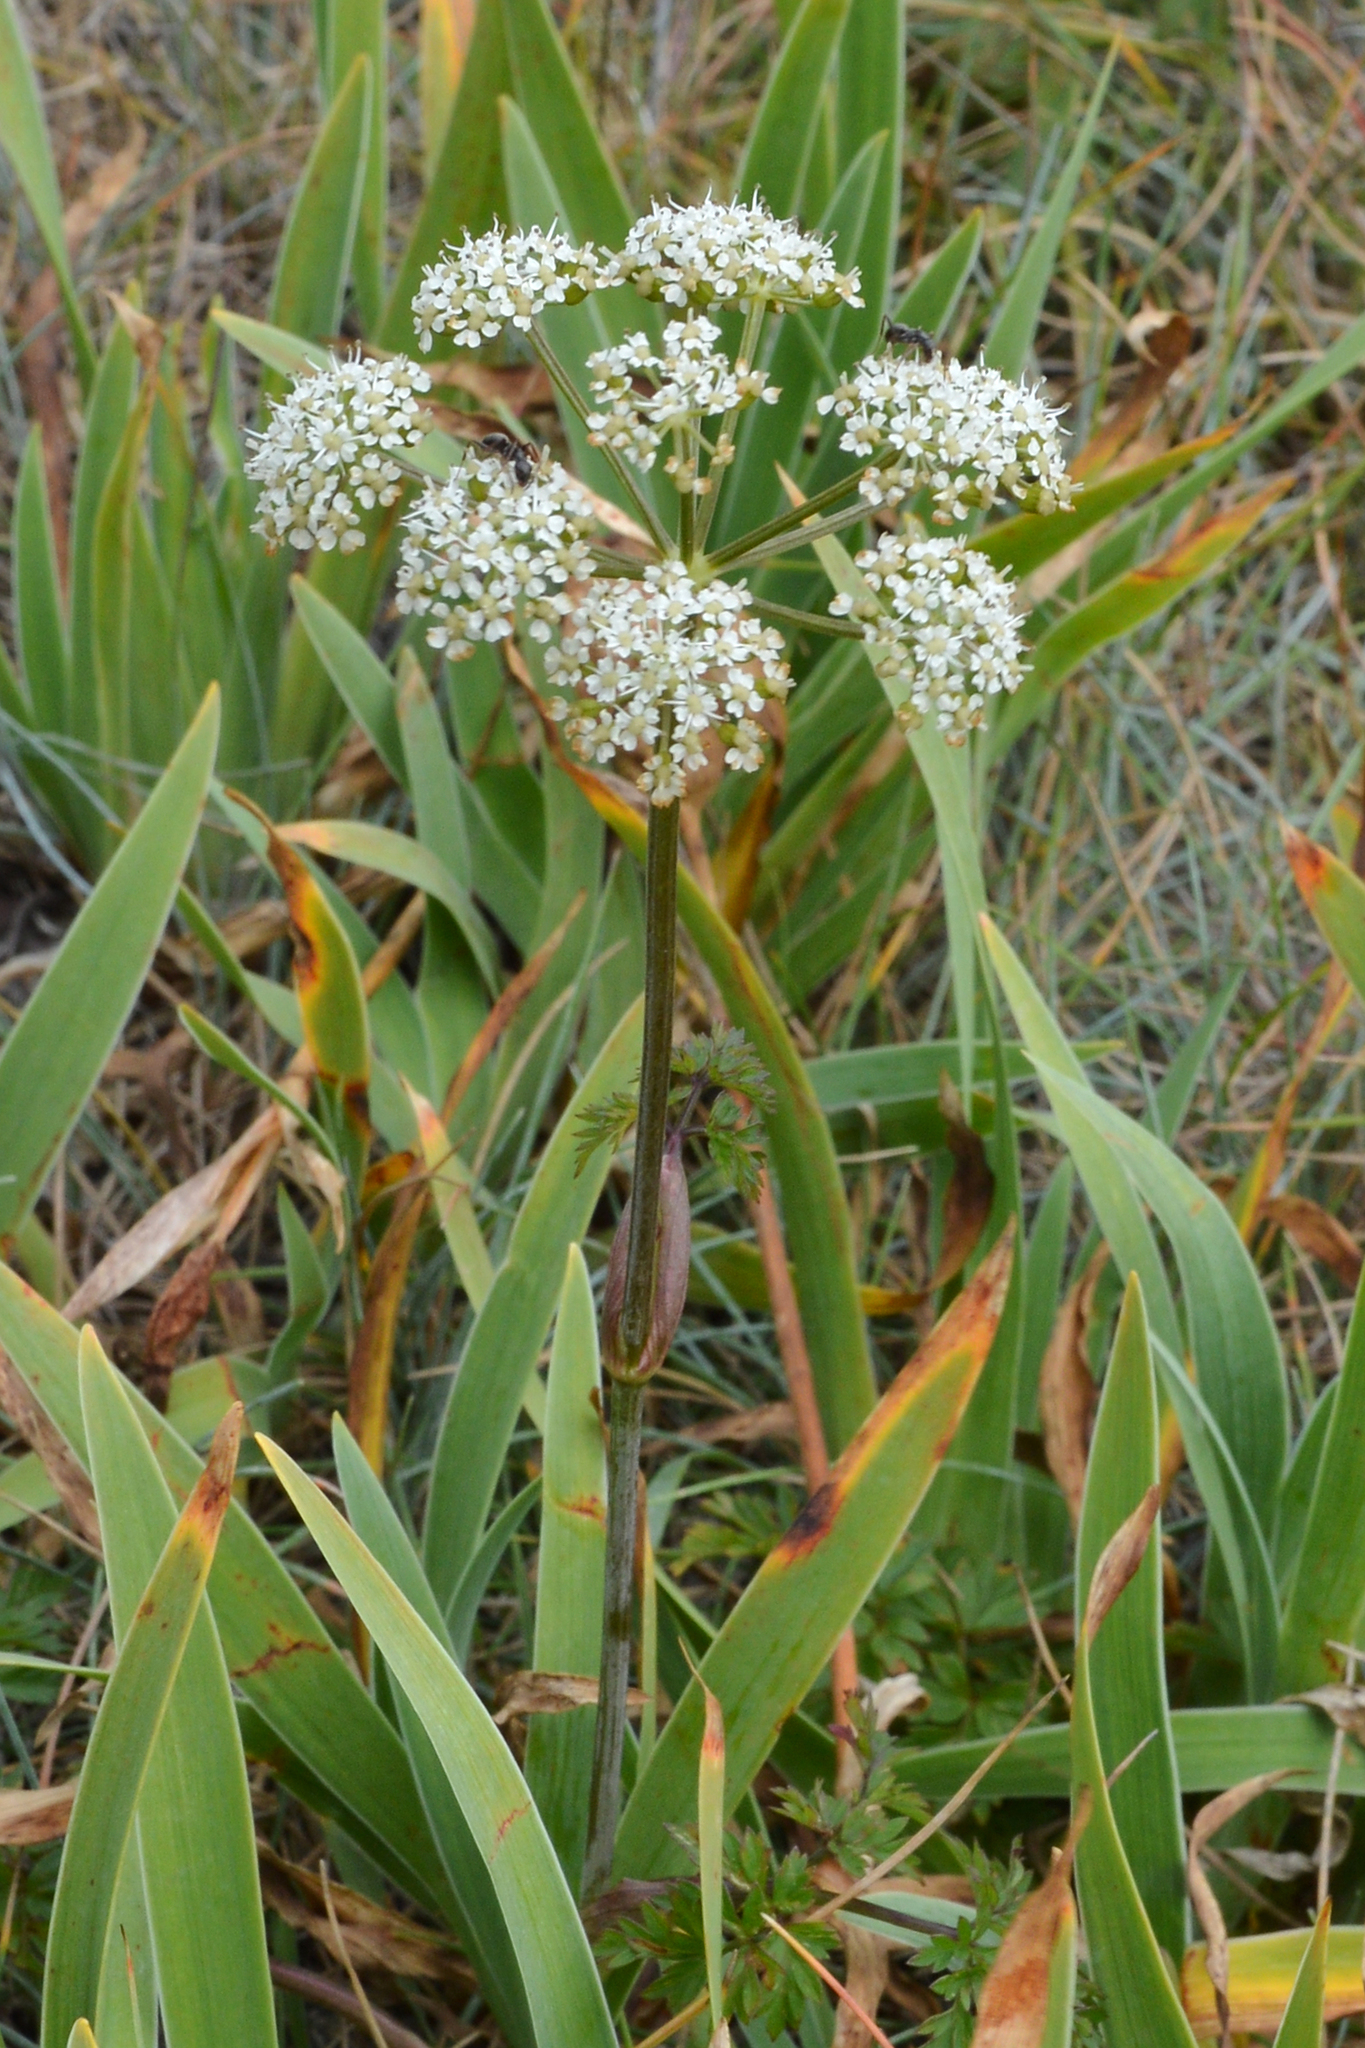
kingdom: Plantae
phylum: Tracheophyta
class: Magnoliopsida
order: Apiales
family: Apiaceae
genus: Kreidion
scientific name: Kreidion chinensis
